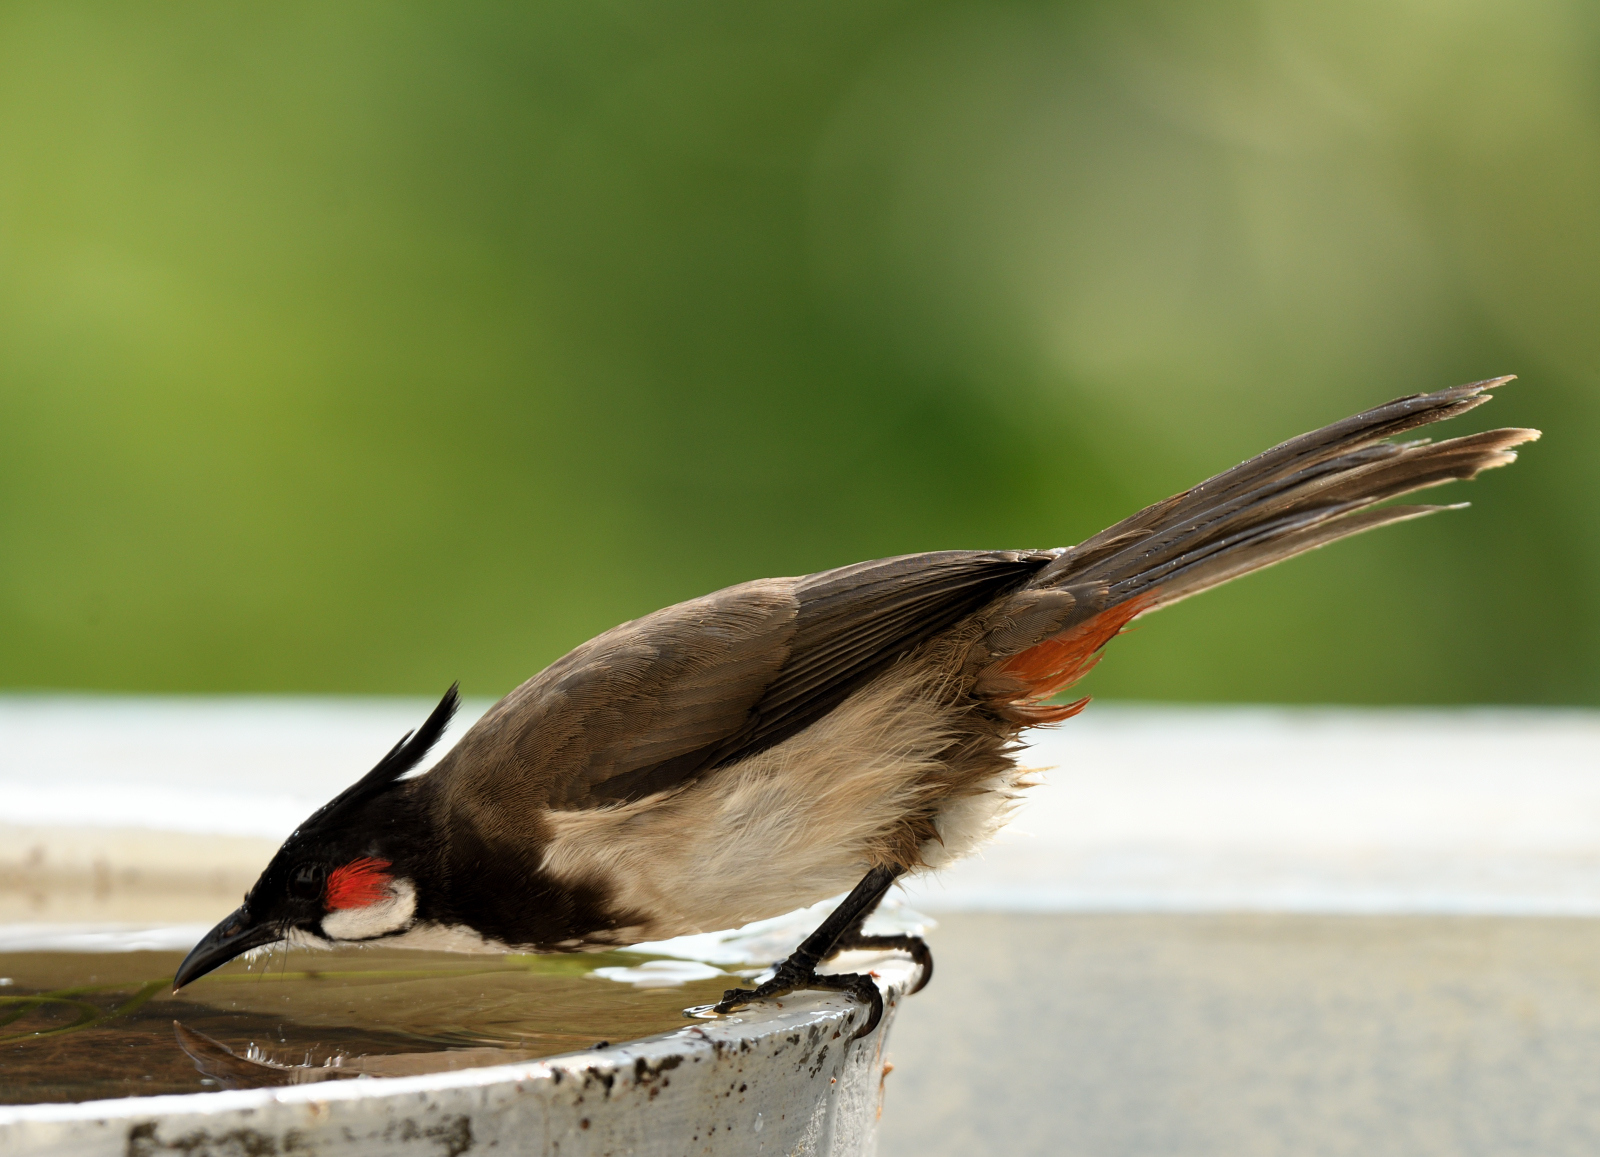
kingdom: Animalia
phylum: Chordata
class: Aves
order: Passeriformes
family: Pycnonotidae
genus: Pycnonotus
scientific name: Pycnonotus jocosus
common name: Red-whiskered bulbul
